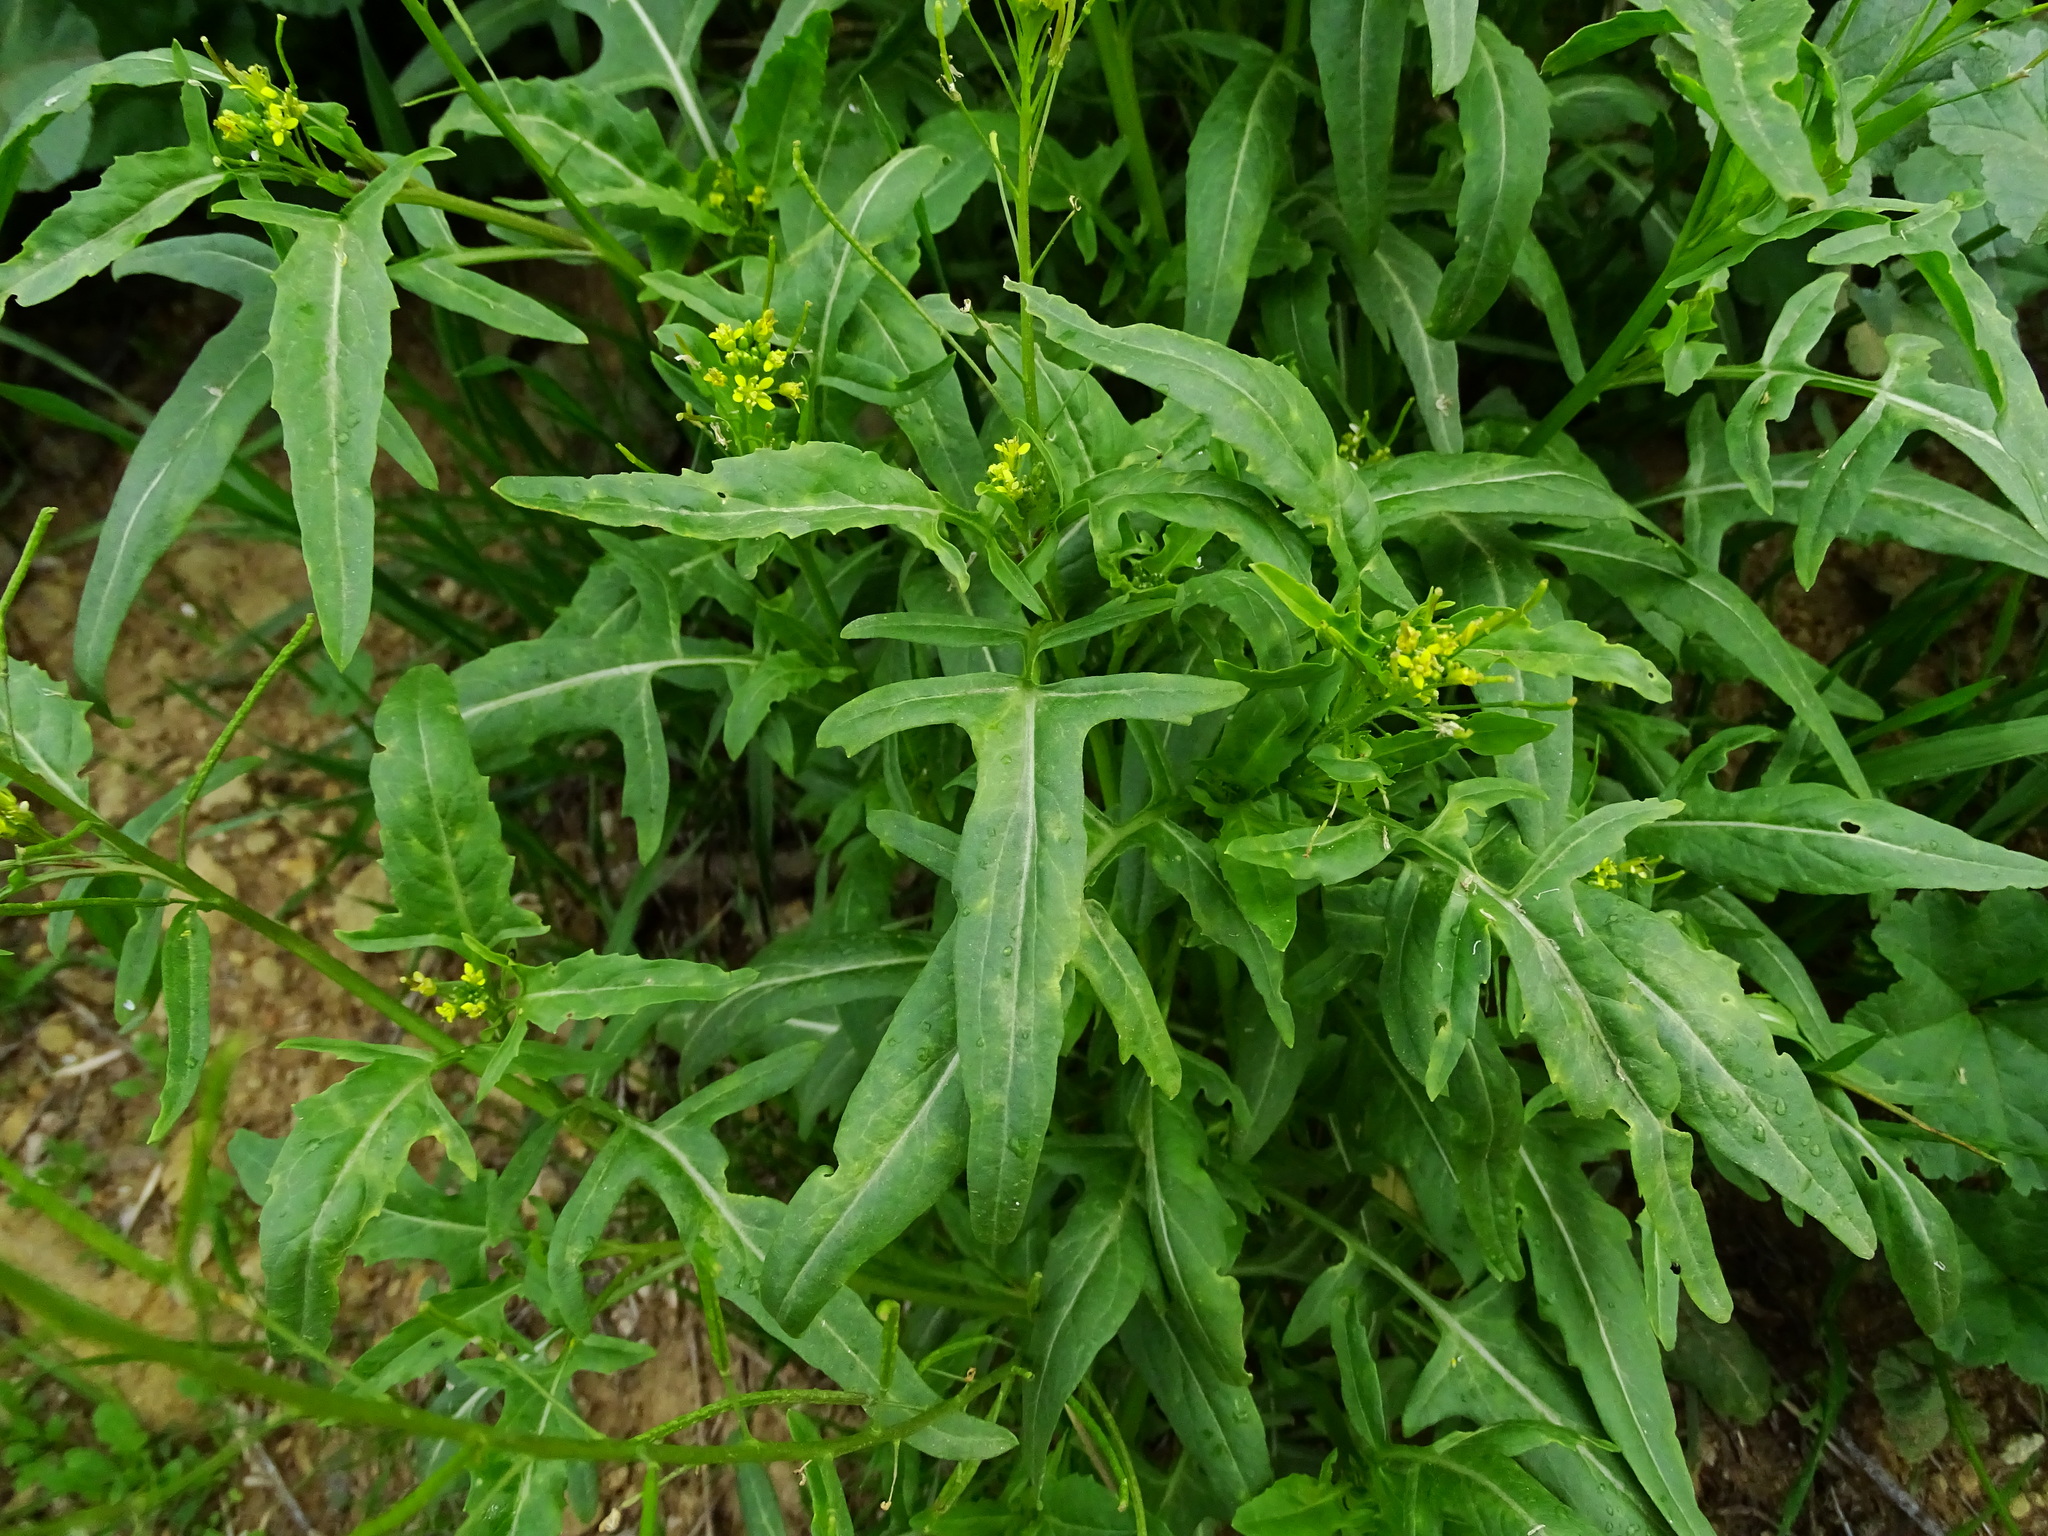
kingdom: Plantae
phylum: Tracheophyta
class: Magnoliopsida
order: Brassicales
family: Brassicaceae
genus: Sisymbrium
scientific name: Sisymbrium irio
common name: London rocket
